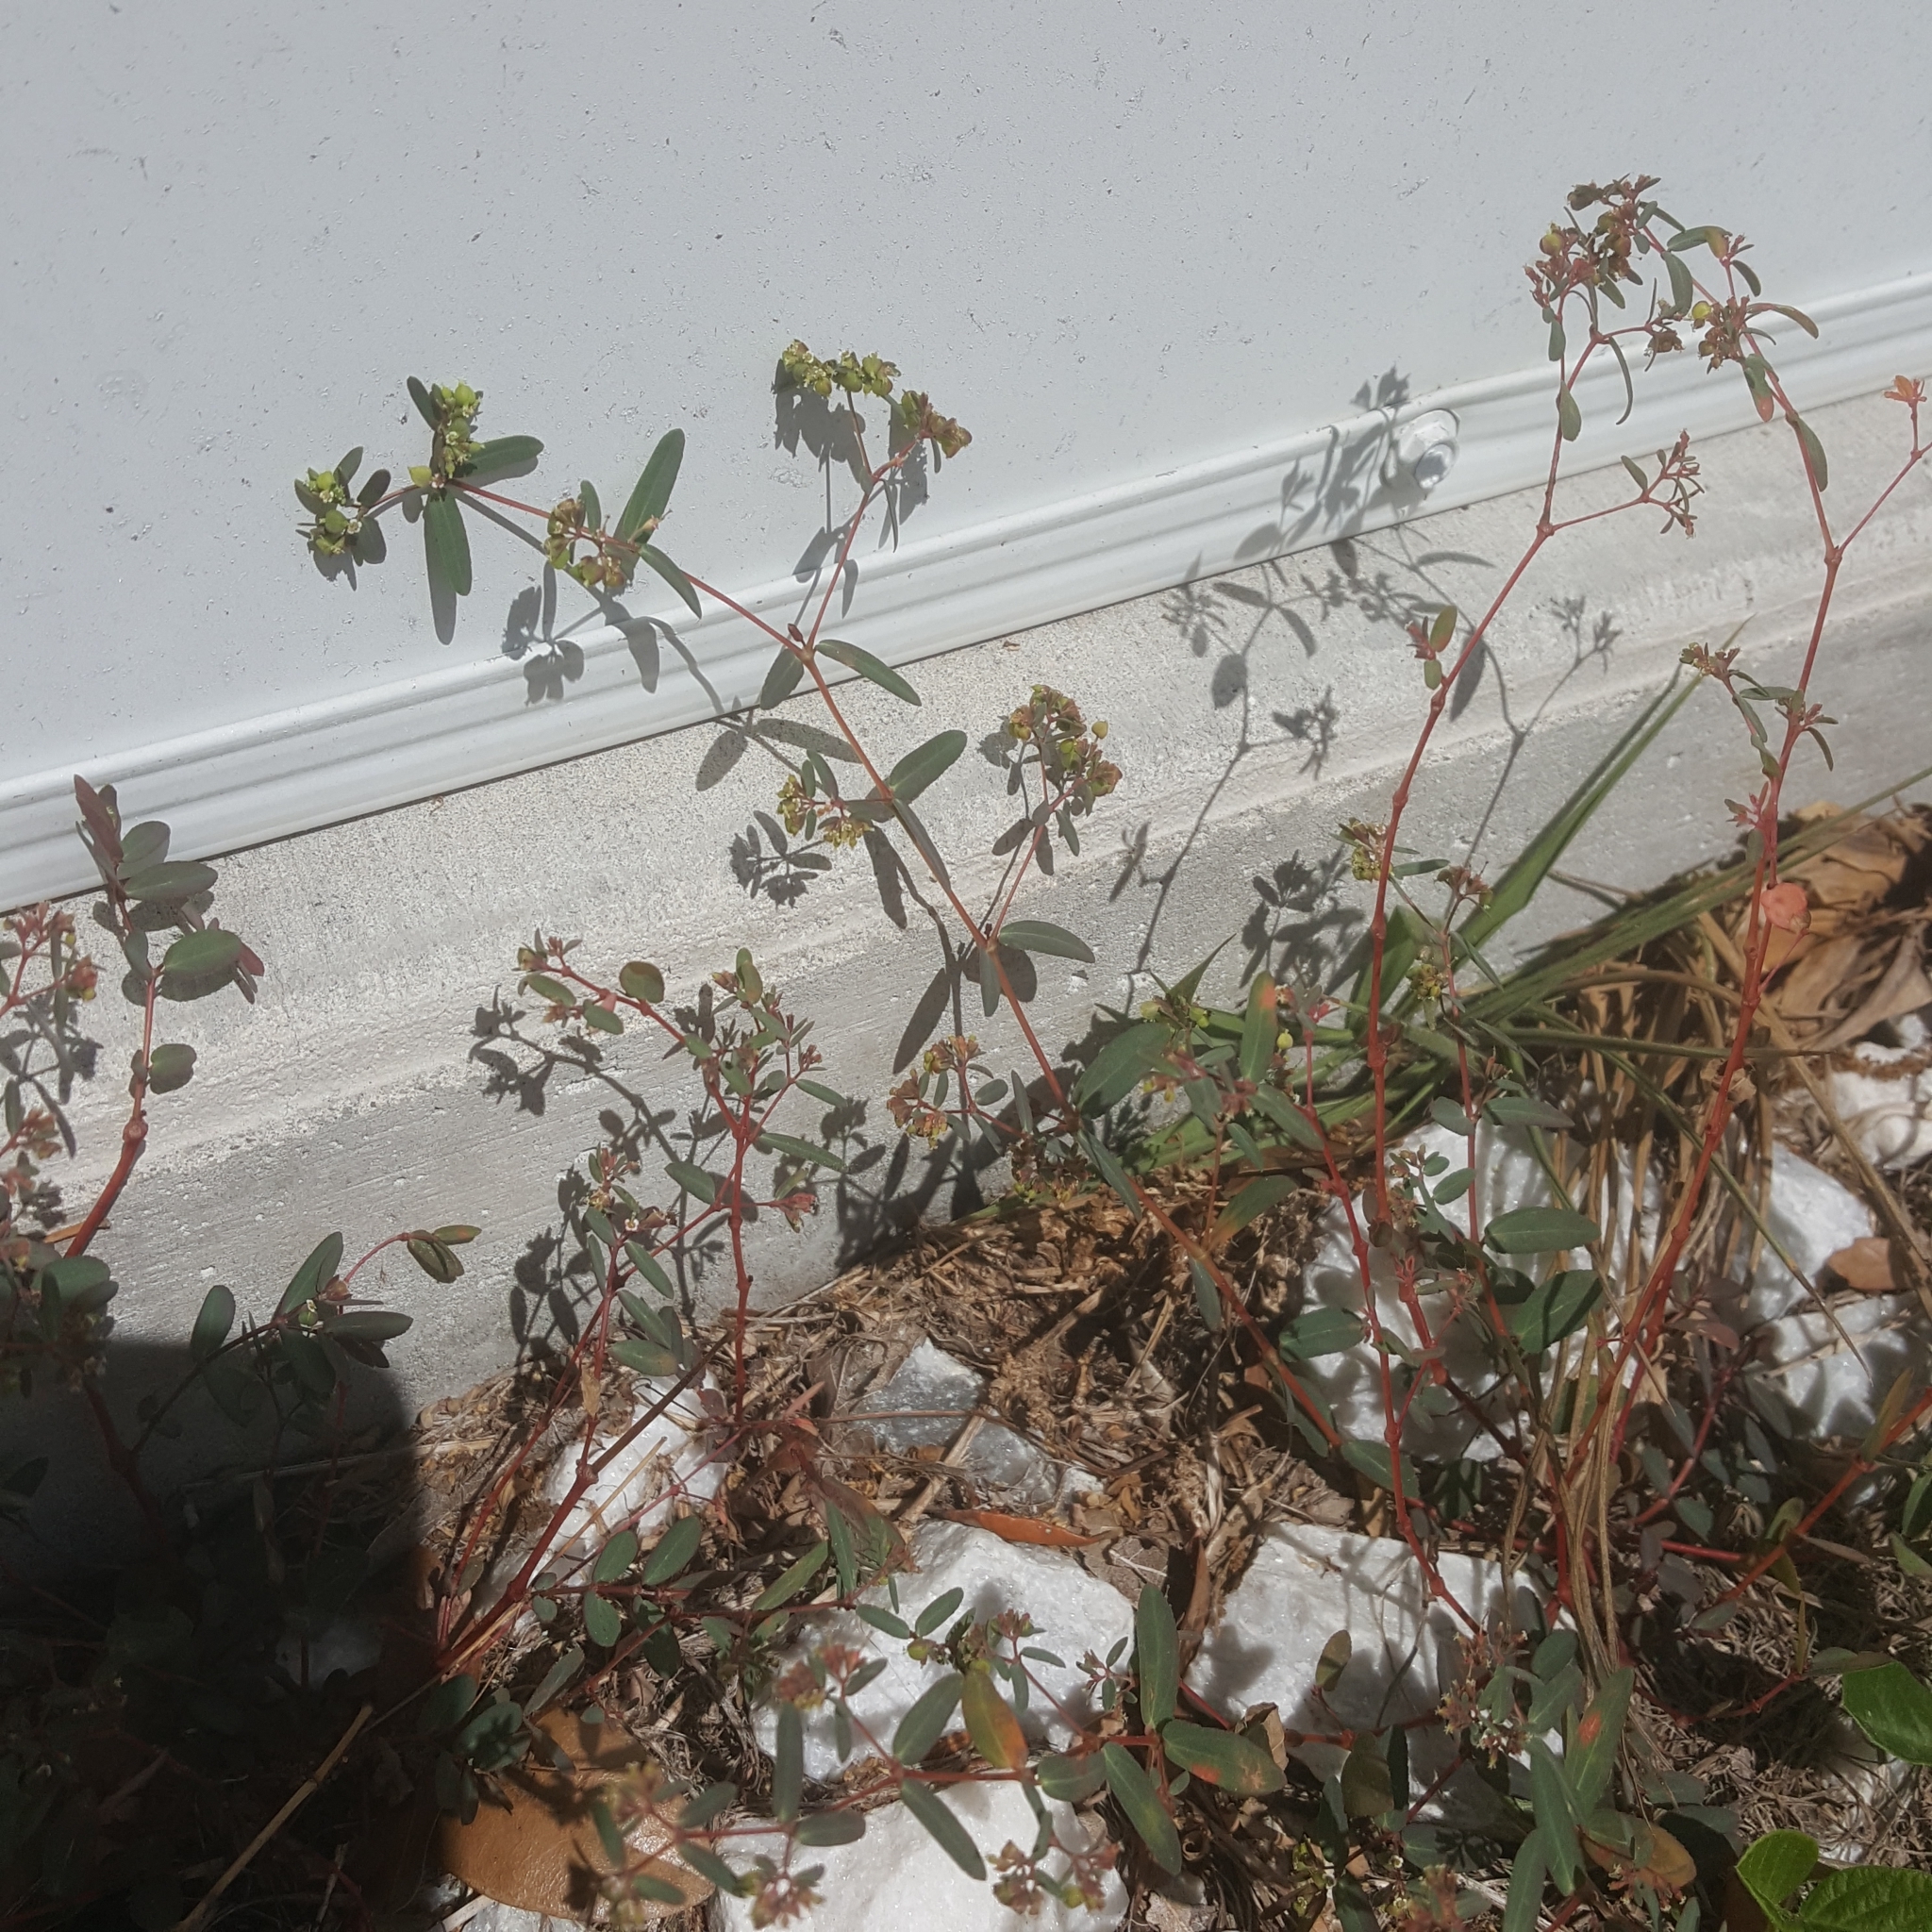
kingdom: Plantae
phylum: Tracheophyta
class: Magnoliopsida
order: Malpighiales
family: Euphorbiaceae
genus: Euphorbia
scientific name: Euphorbia hyssopifolia
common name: Hyssopleaf sandmat
